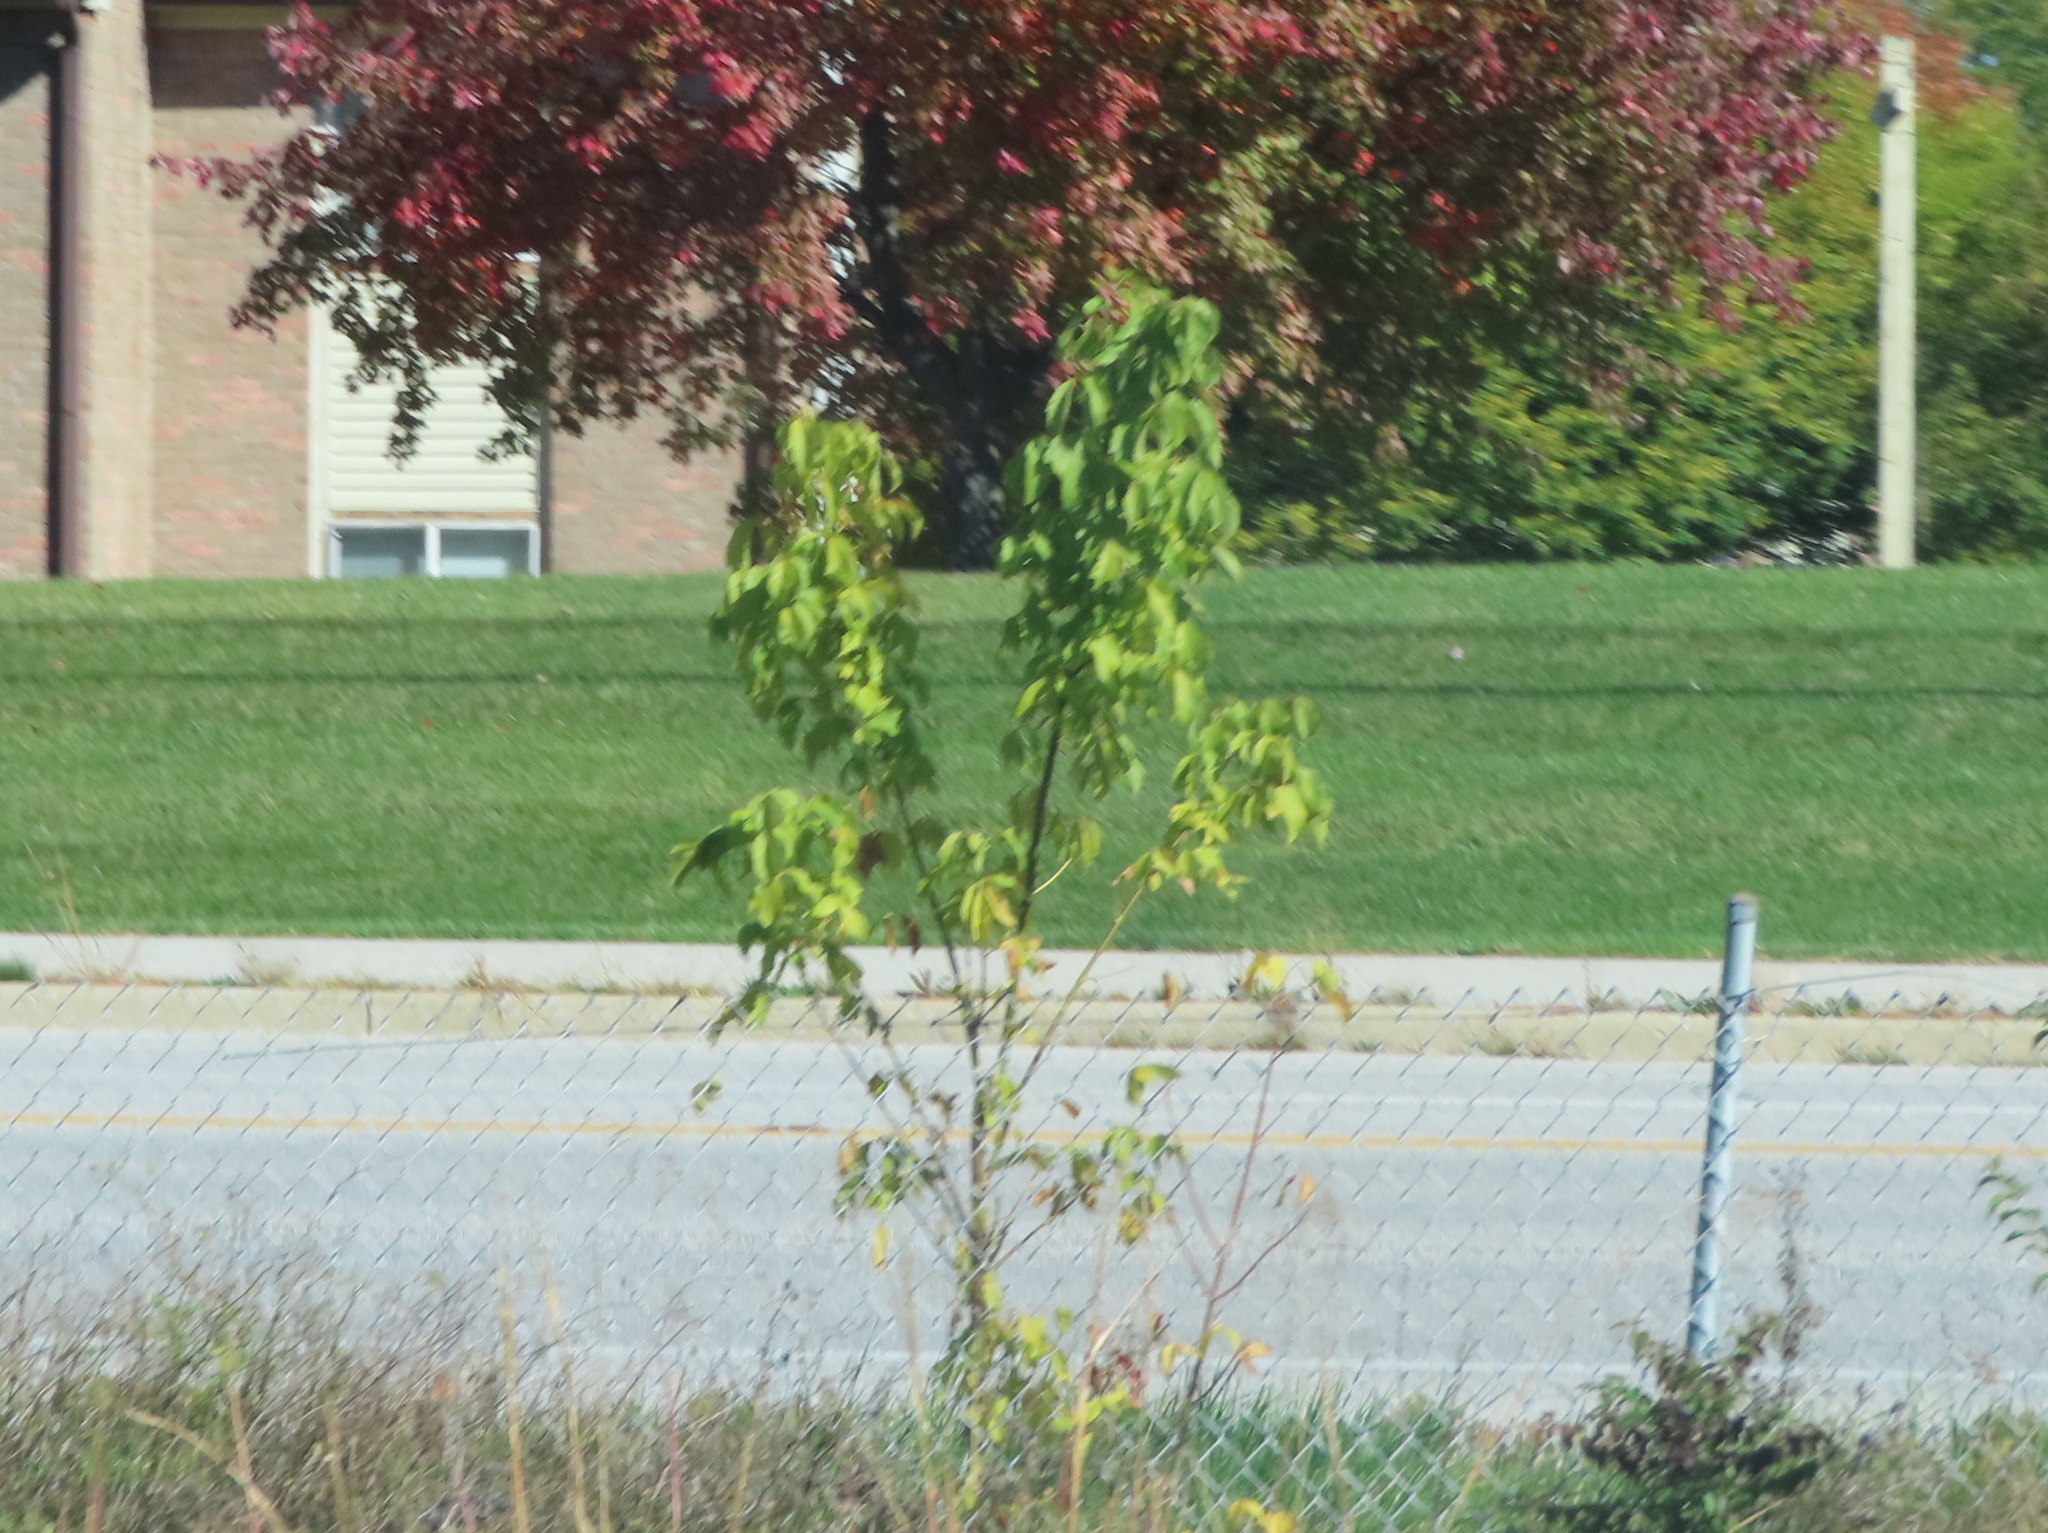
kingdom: Plantae
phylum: Tracheophyta
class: Magnoliopsida
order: Sapindales
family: Sapindaceae
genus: Acer
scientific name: Acer negundo
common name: Ashleaf maple
